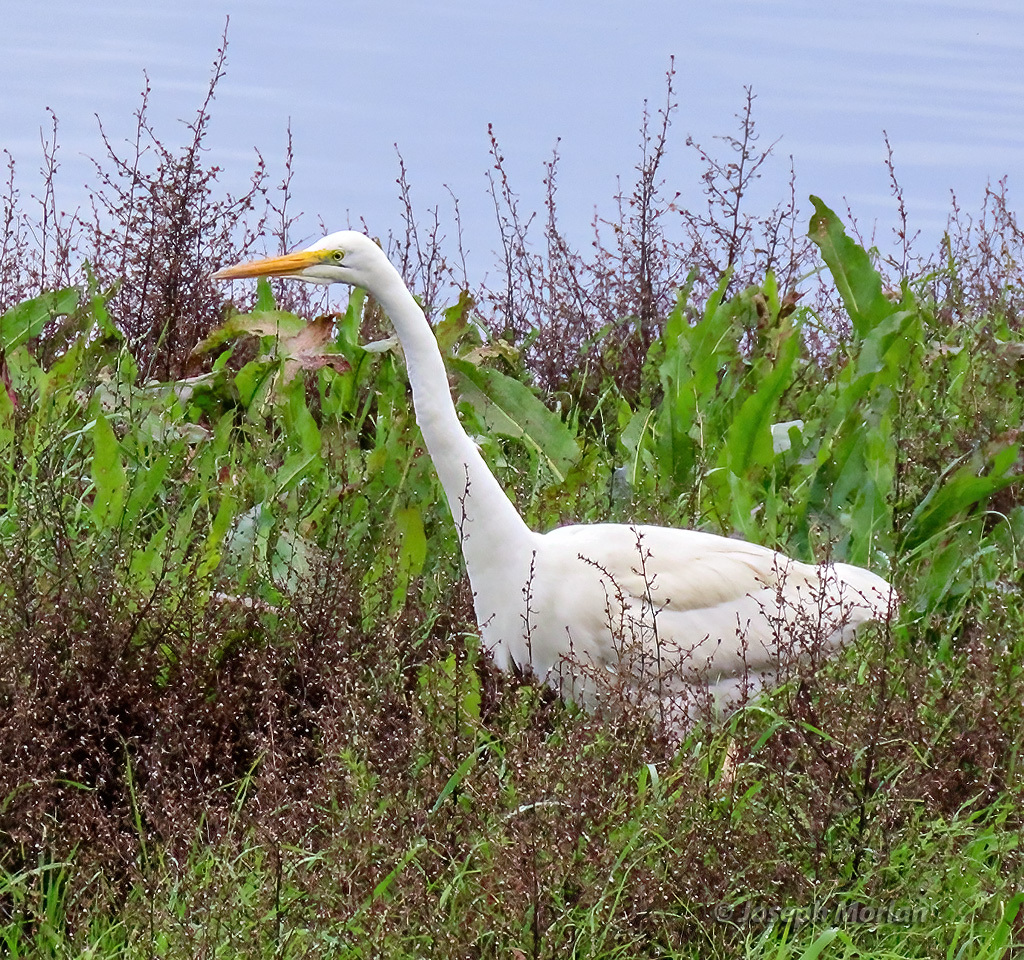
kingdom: Animalia
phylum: Chordata
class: Aves
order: Pelecaniformes
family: Ardeidae
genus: Ardea
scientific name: Ardea alba
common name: Great egret
